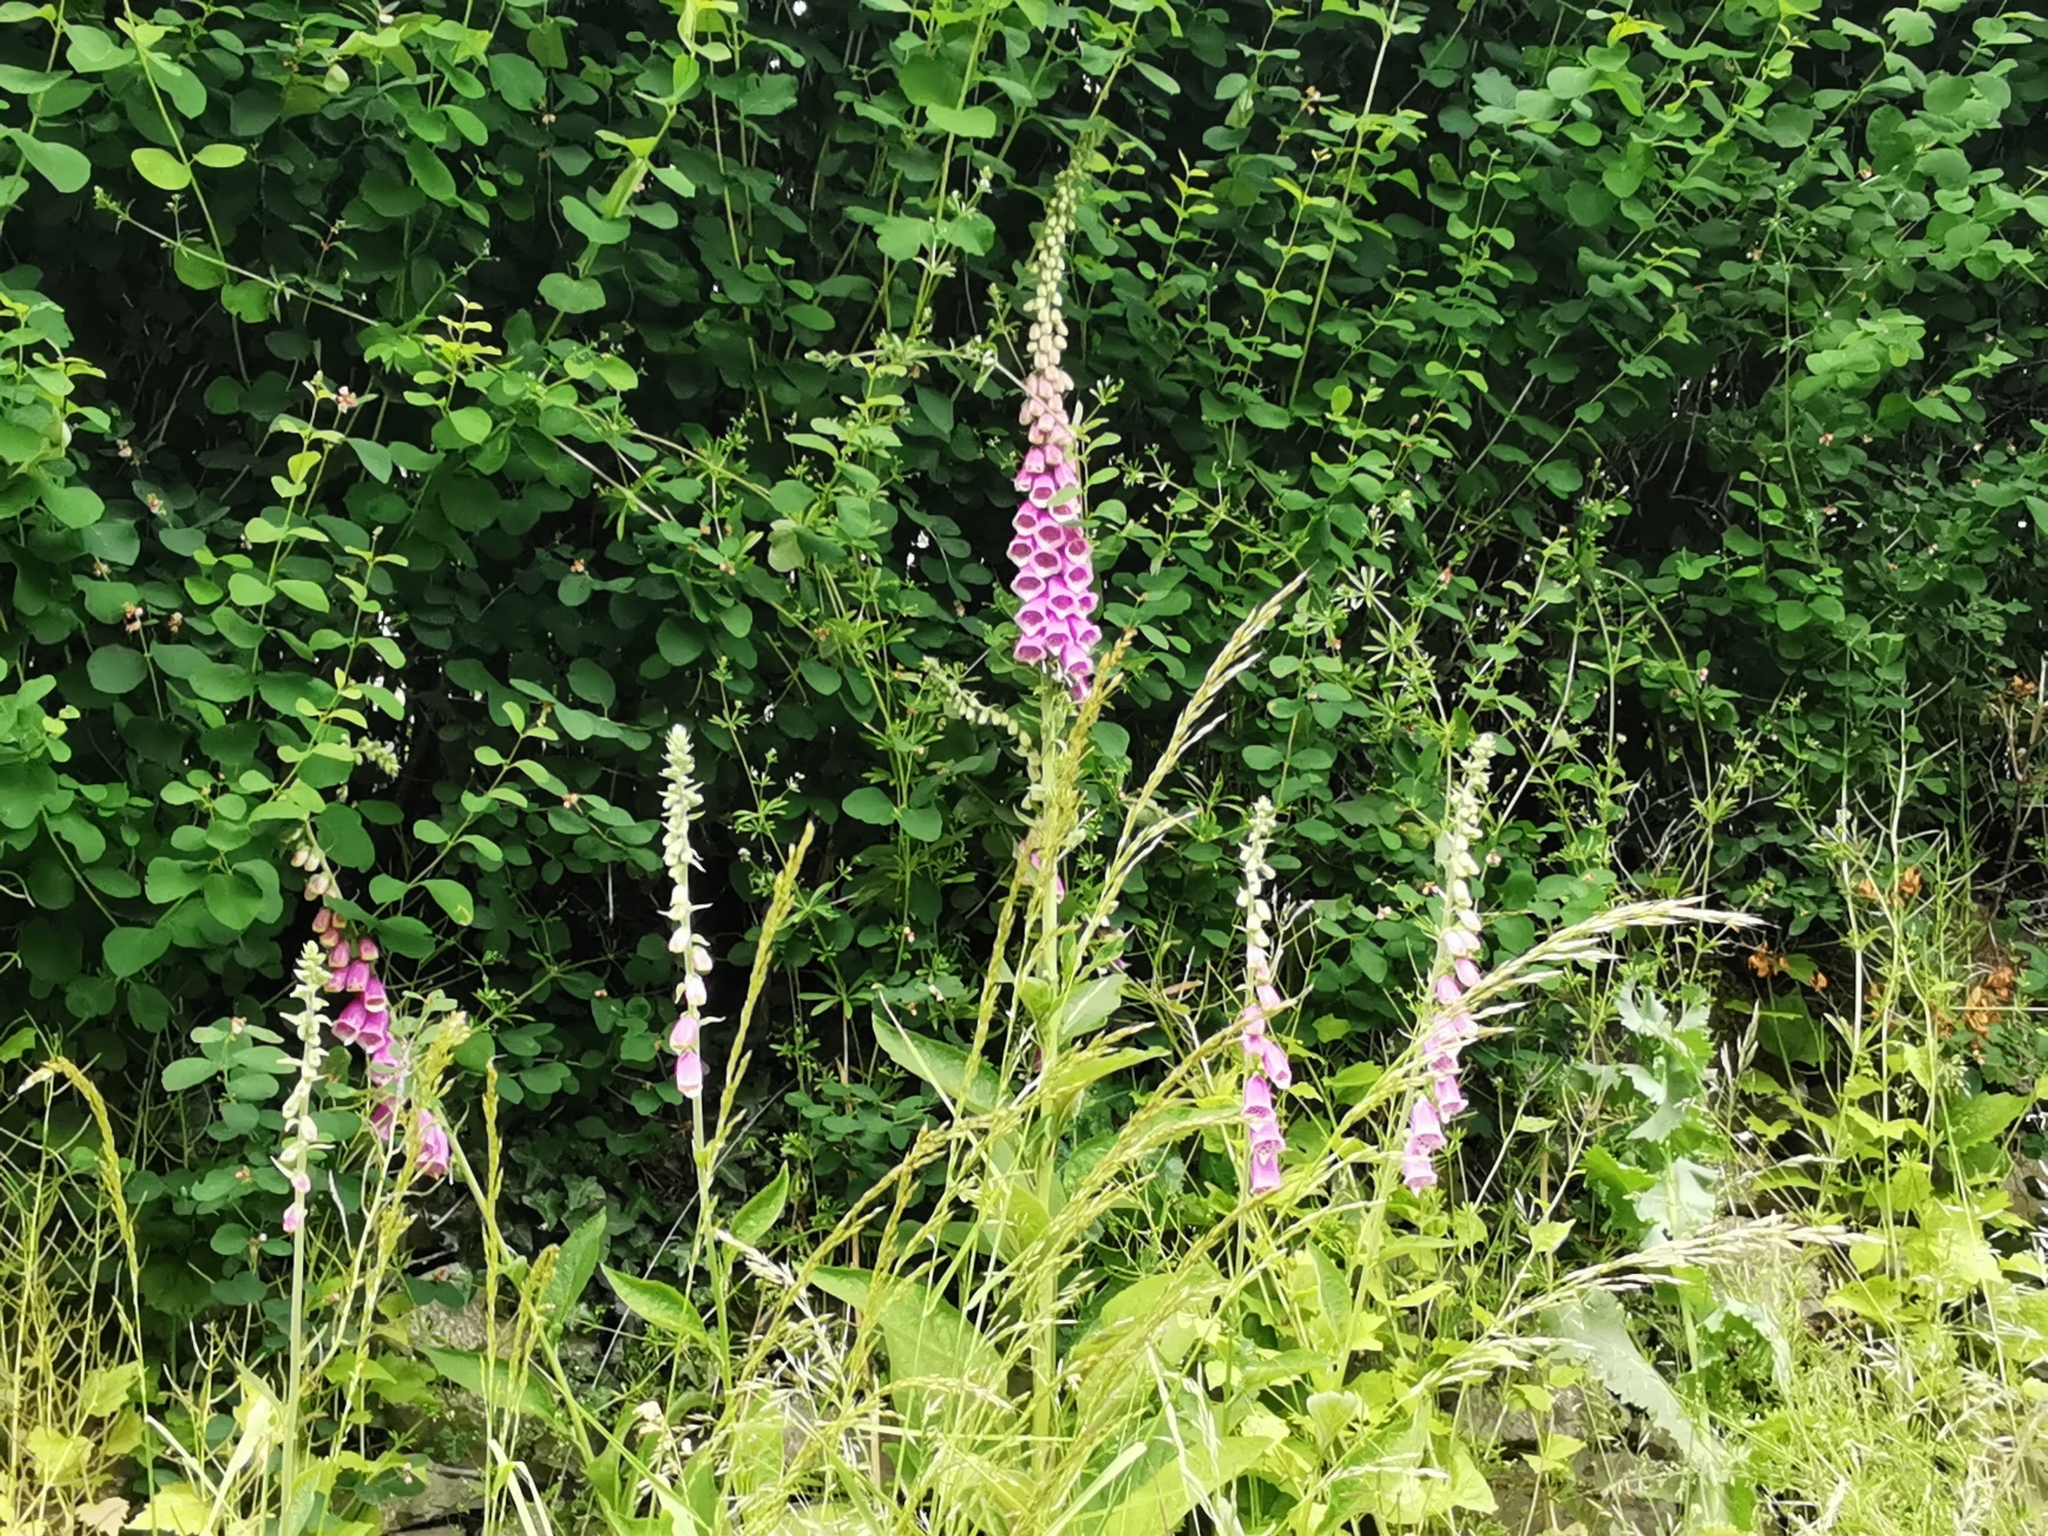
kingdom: Plantae
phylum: Tracheophyta
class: Magnoliopsida
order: Lamiales
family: Plantaginaceae
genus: Digitalis
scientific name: Digitalis purpurea
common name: Foxglove
